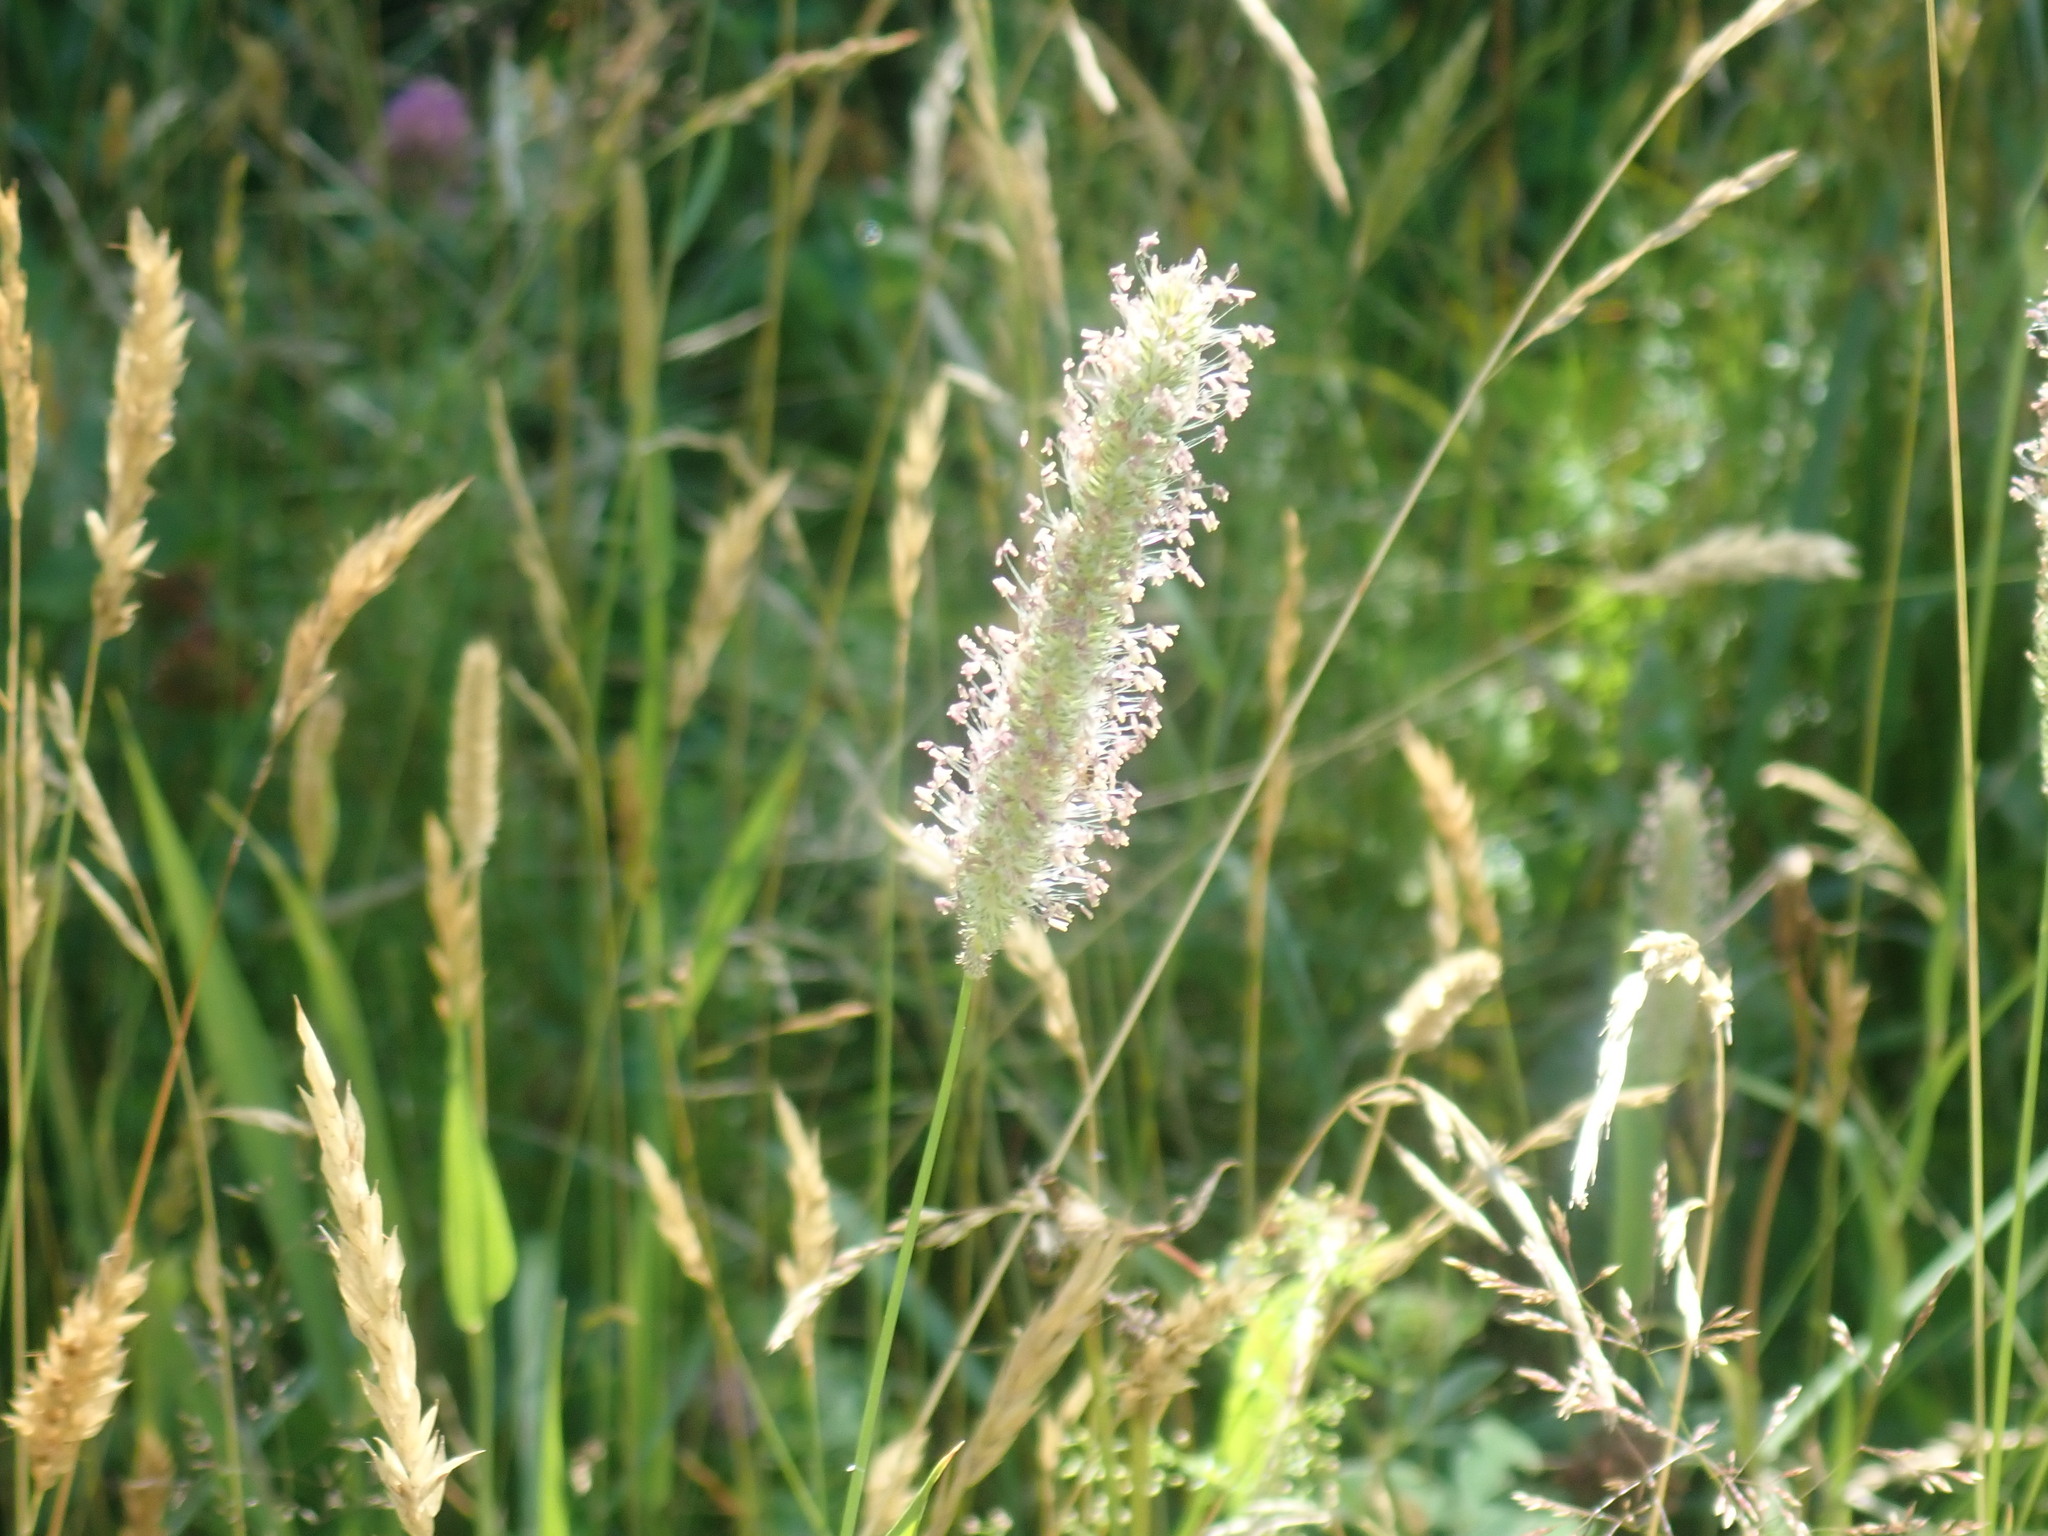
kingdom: Plantae
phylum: Tracheophyta
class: Liliopsida
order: Poales
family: Poaceae
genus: Phleum
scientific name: Phleum pratense
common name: Timothy grass
